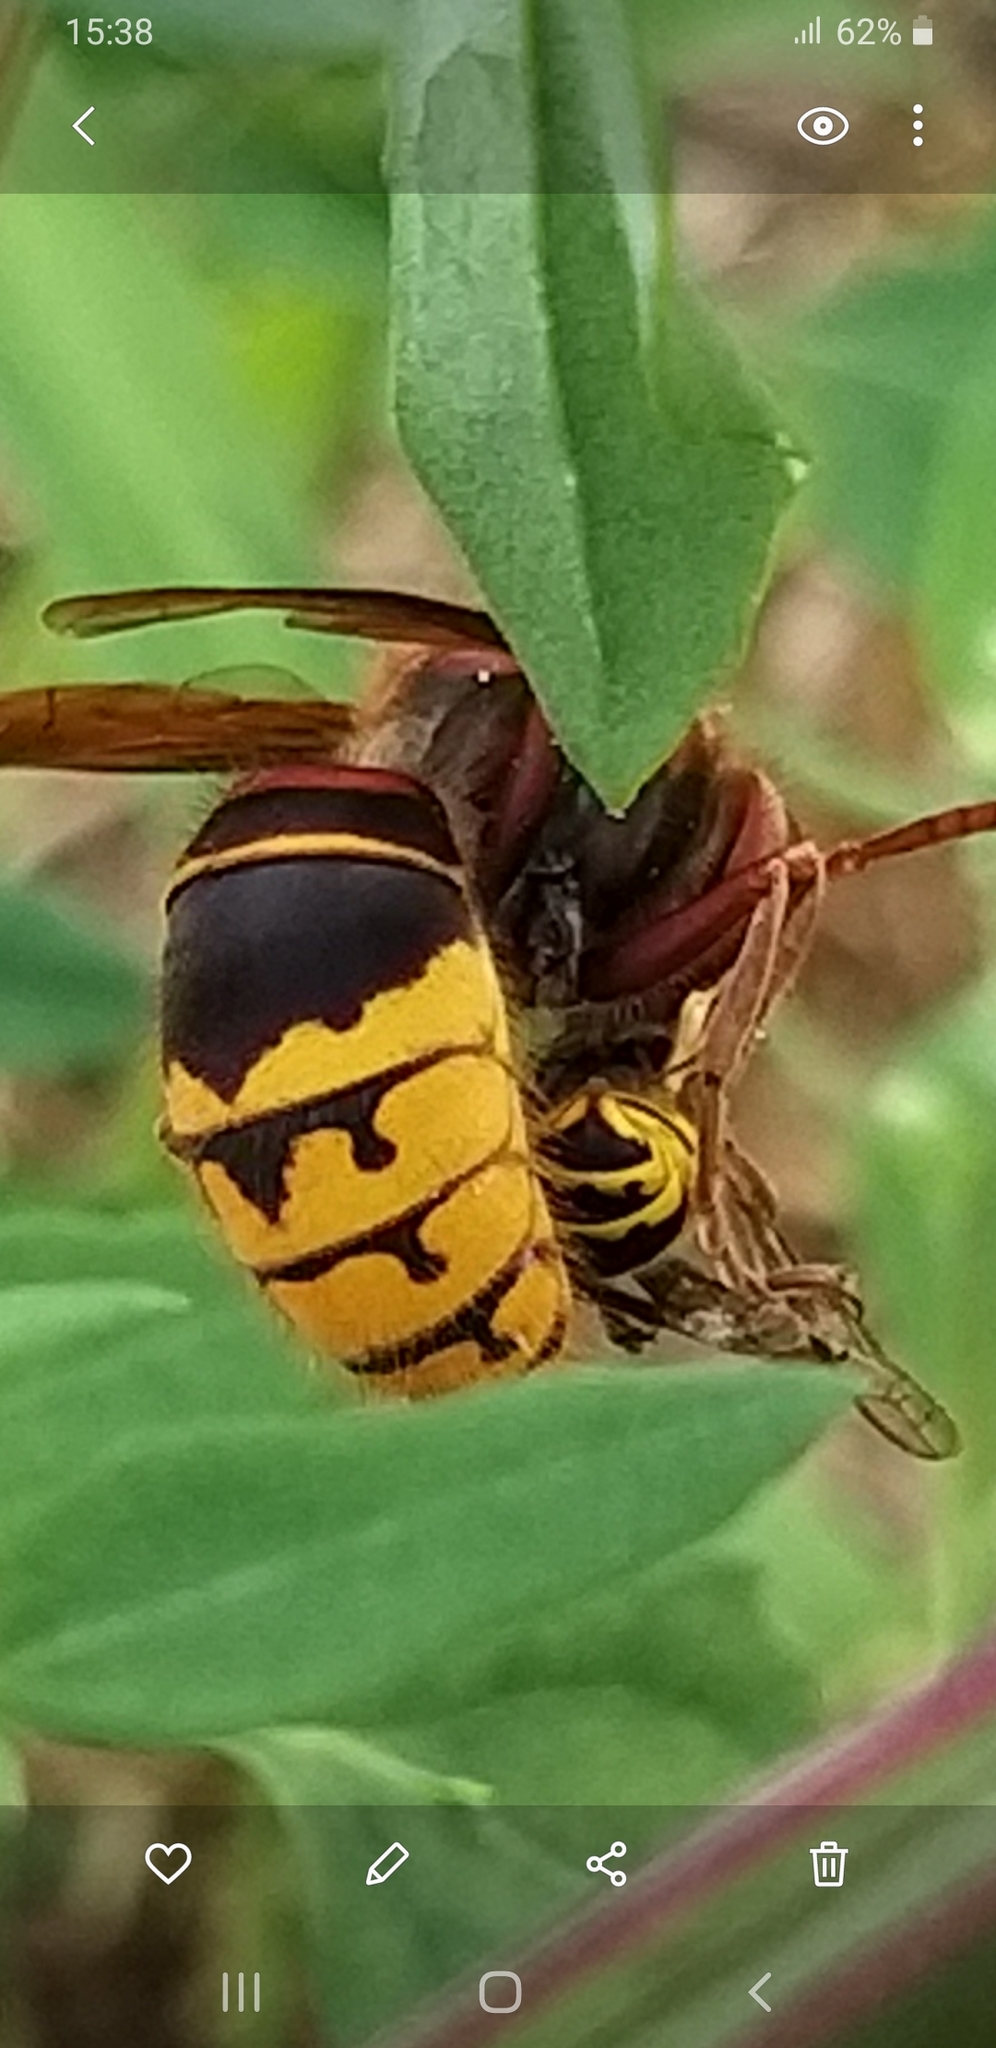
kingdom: Animalia
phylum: Arthropoda
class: Insecta
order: Hymenoptera
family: Vespidae
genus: Vespa
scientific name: Vespa crabro
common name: Hornet
